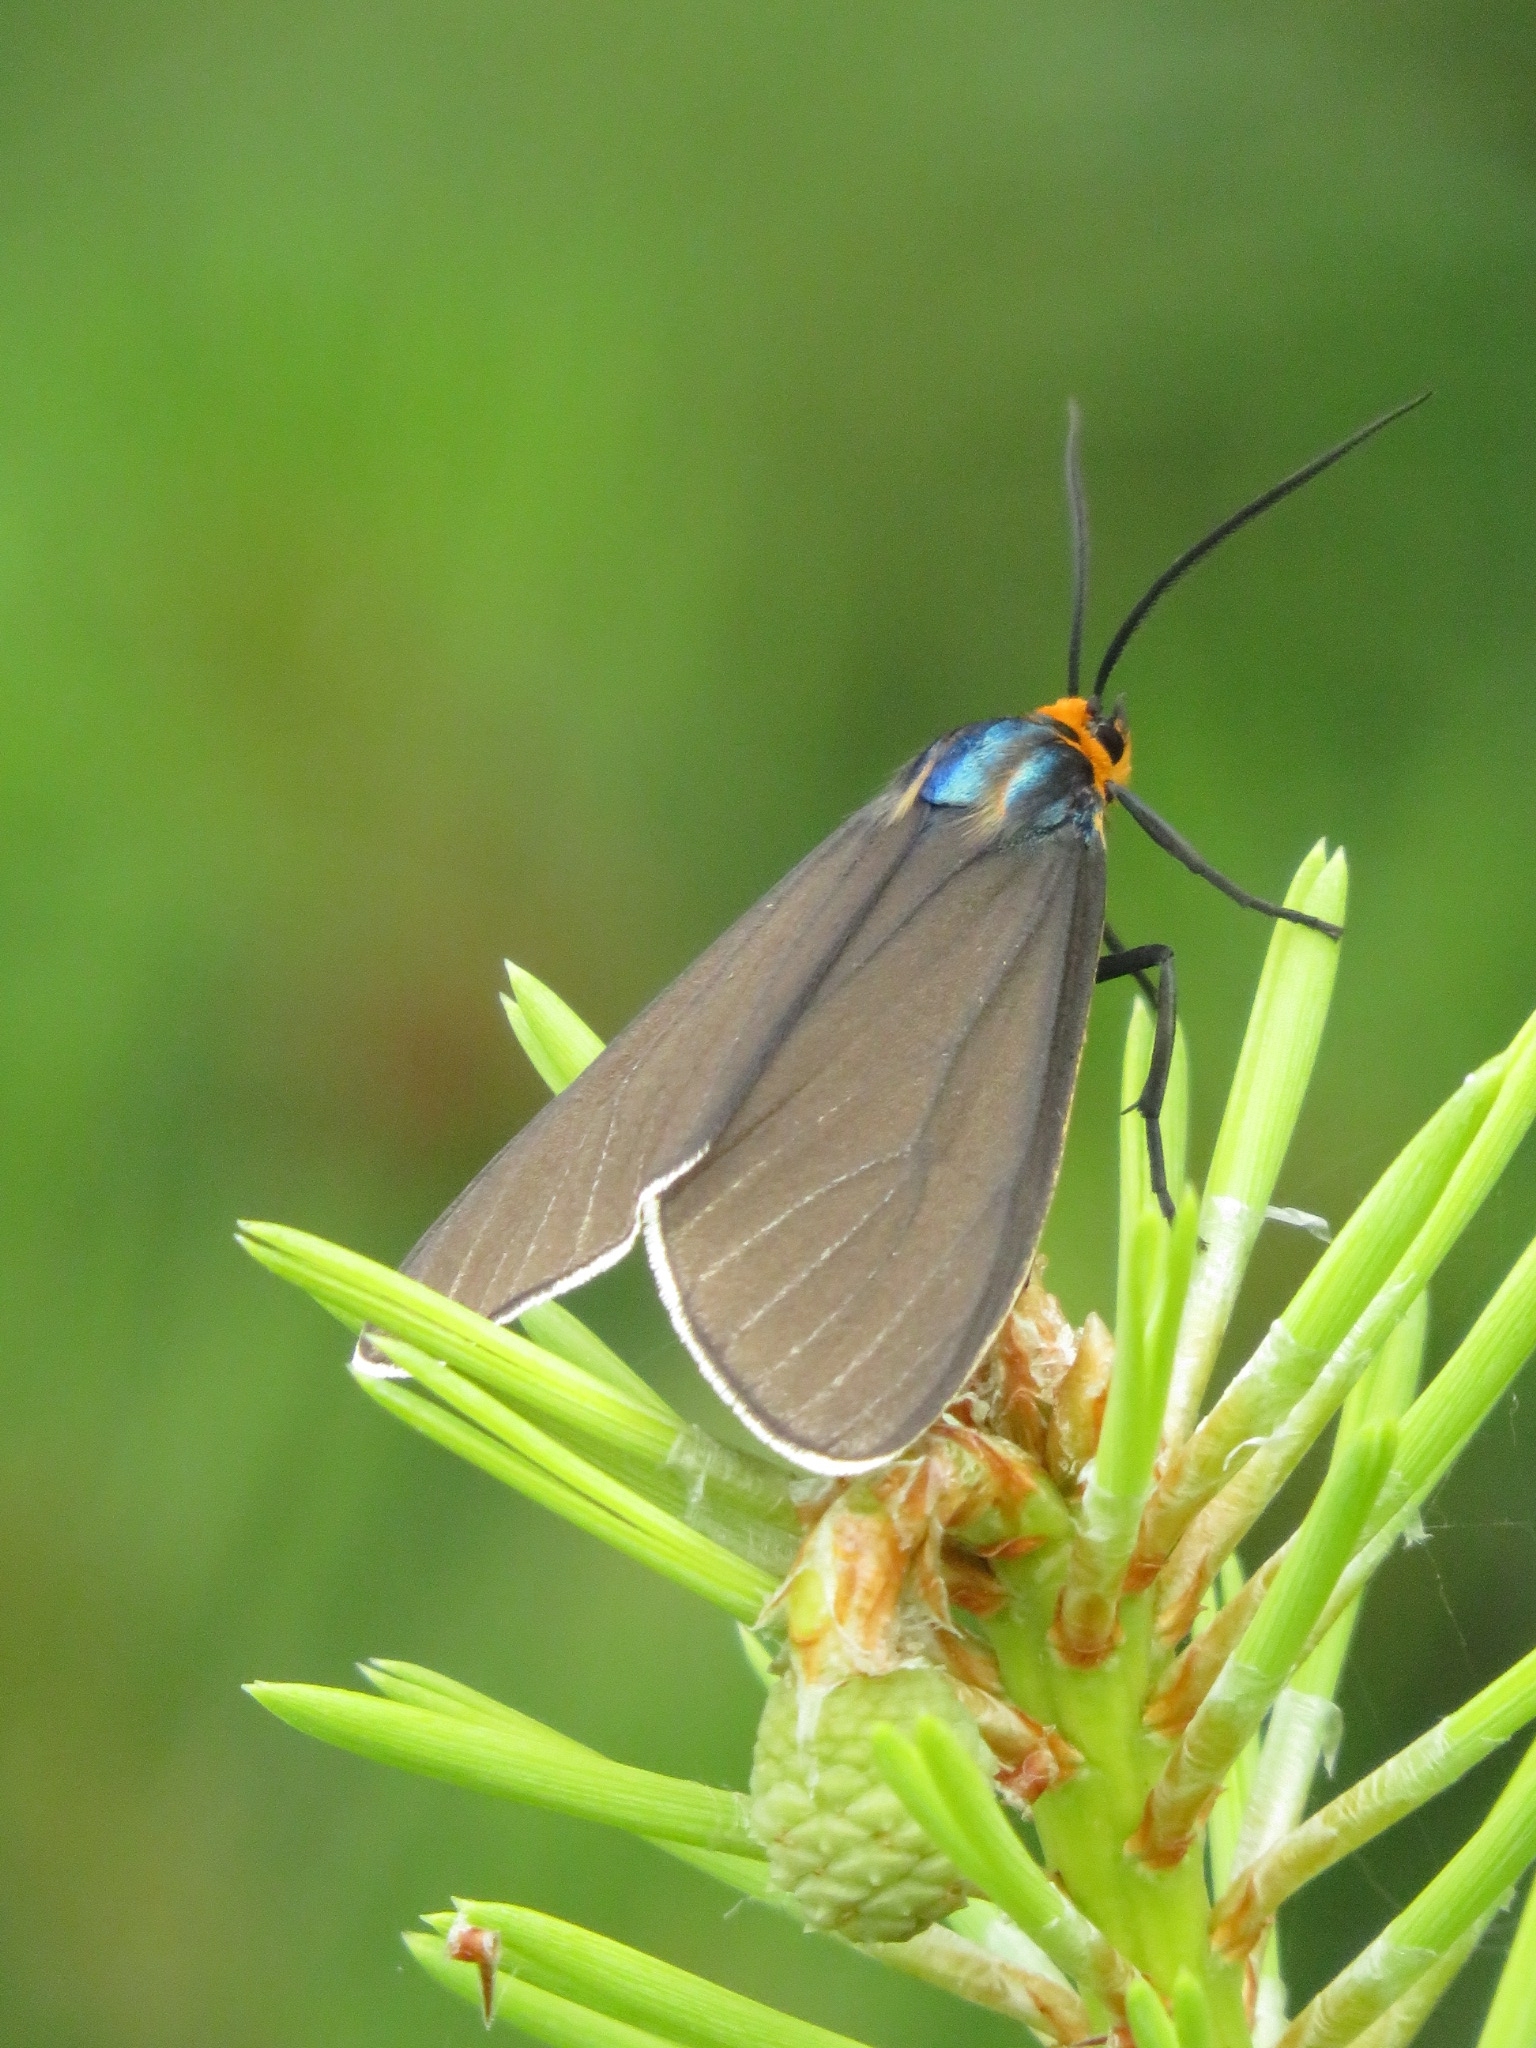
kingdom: Animalia
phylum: Arthropoda
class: Insecta
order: Lepidoptera
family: Erebidae
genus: Ctenucha
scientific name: Ctenucha virginica
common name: Virginia ctenucha moth
